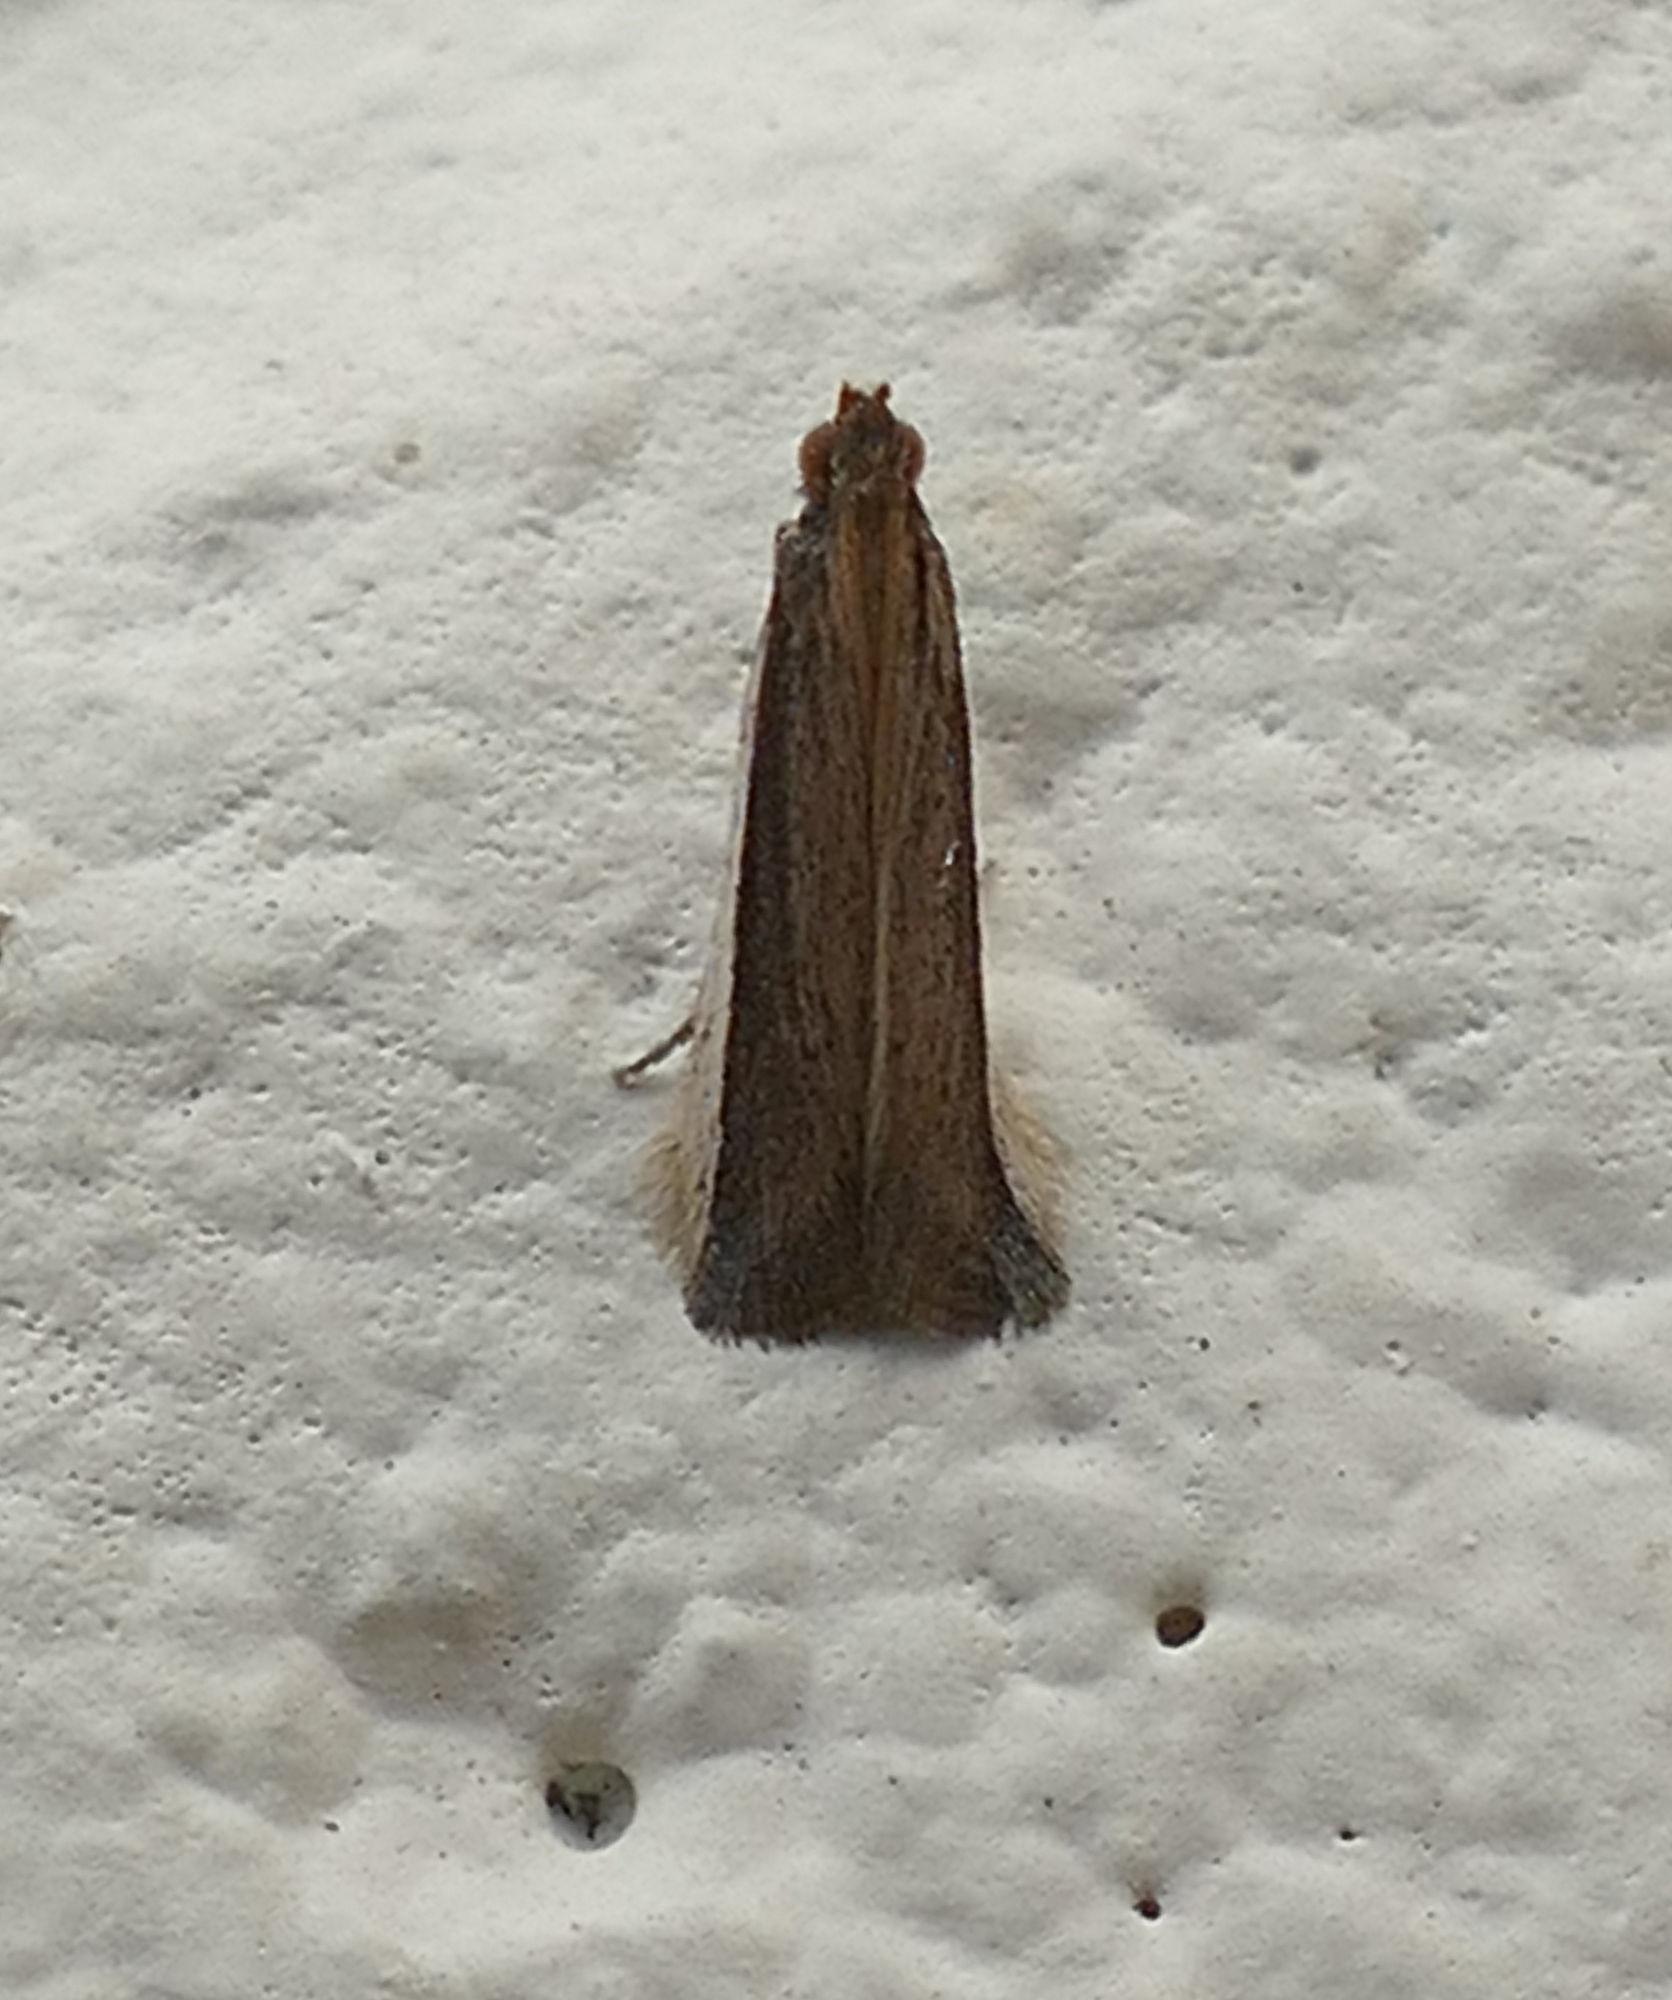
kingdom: Animalia
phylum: Arthropoda
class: Insecta
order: Lepidoptera
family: Pyralidae
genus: Tampa
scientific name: Tampa dimediatella
